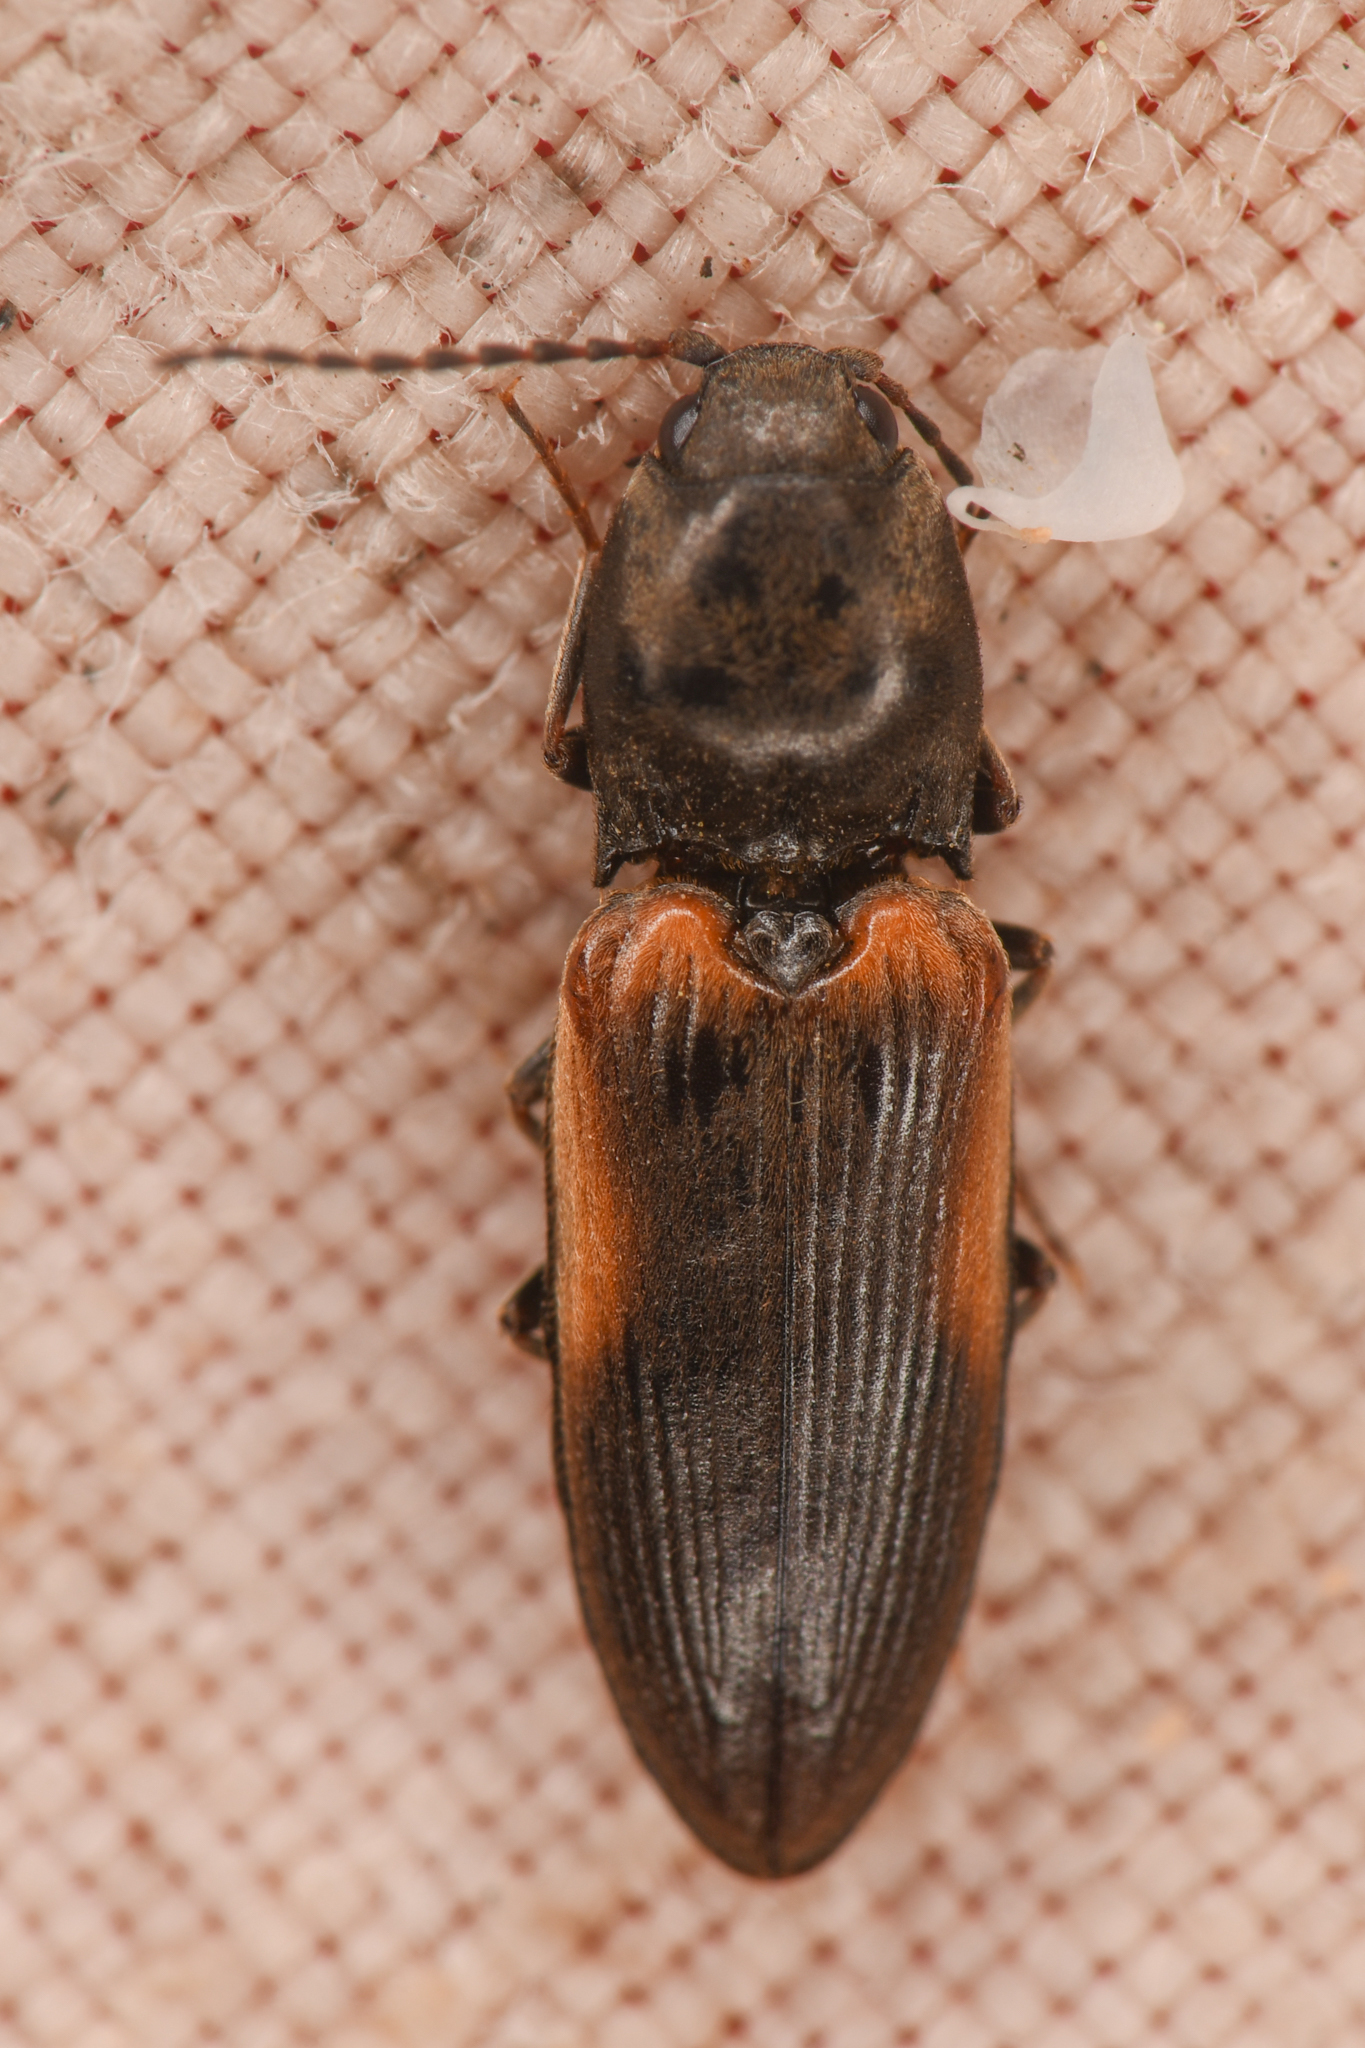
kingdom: Animalia
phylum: Arthropoda
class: Insecta
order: Coleoptera
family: Elateridae
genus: Cardiophorus
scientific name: Cardiophorus edwardsi
